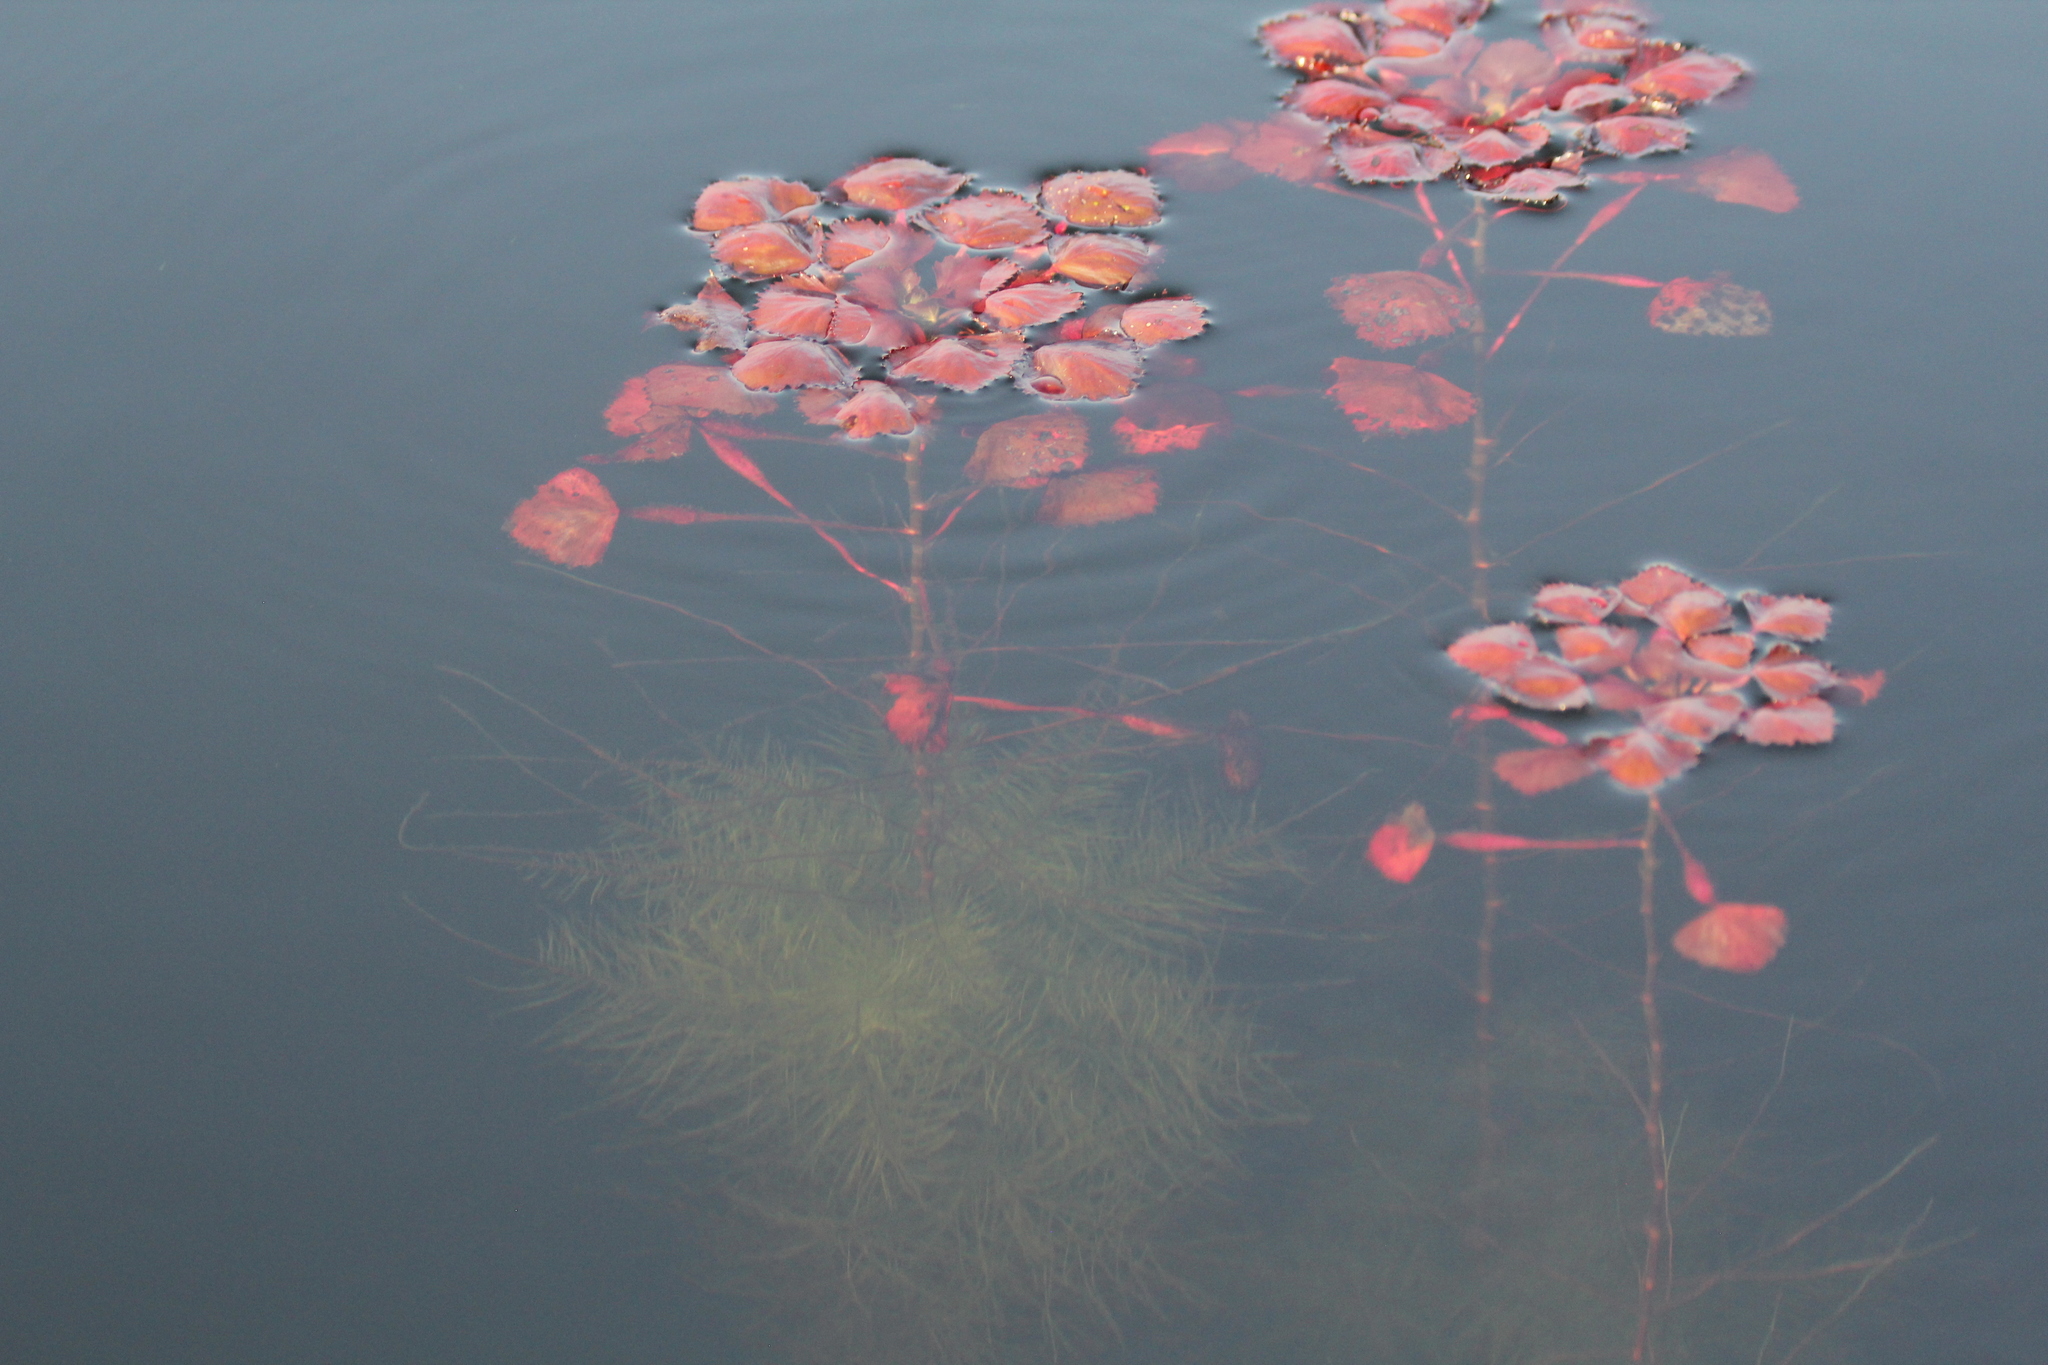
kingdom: Plantae
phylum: Tracheophyta
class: Magnoliopsida
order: Myrtales
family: Lythraceae
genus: Trapa
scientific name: Trapa natans
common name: Water chestnut
